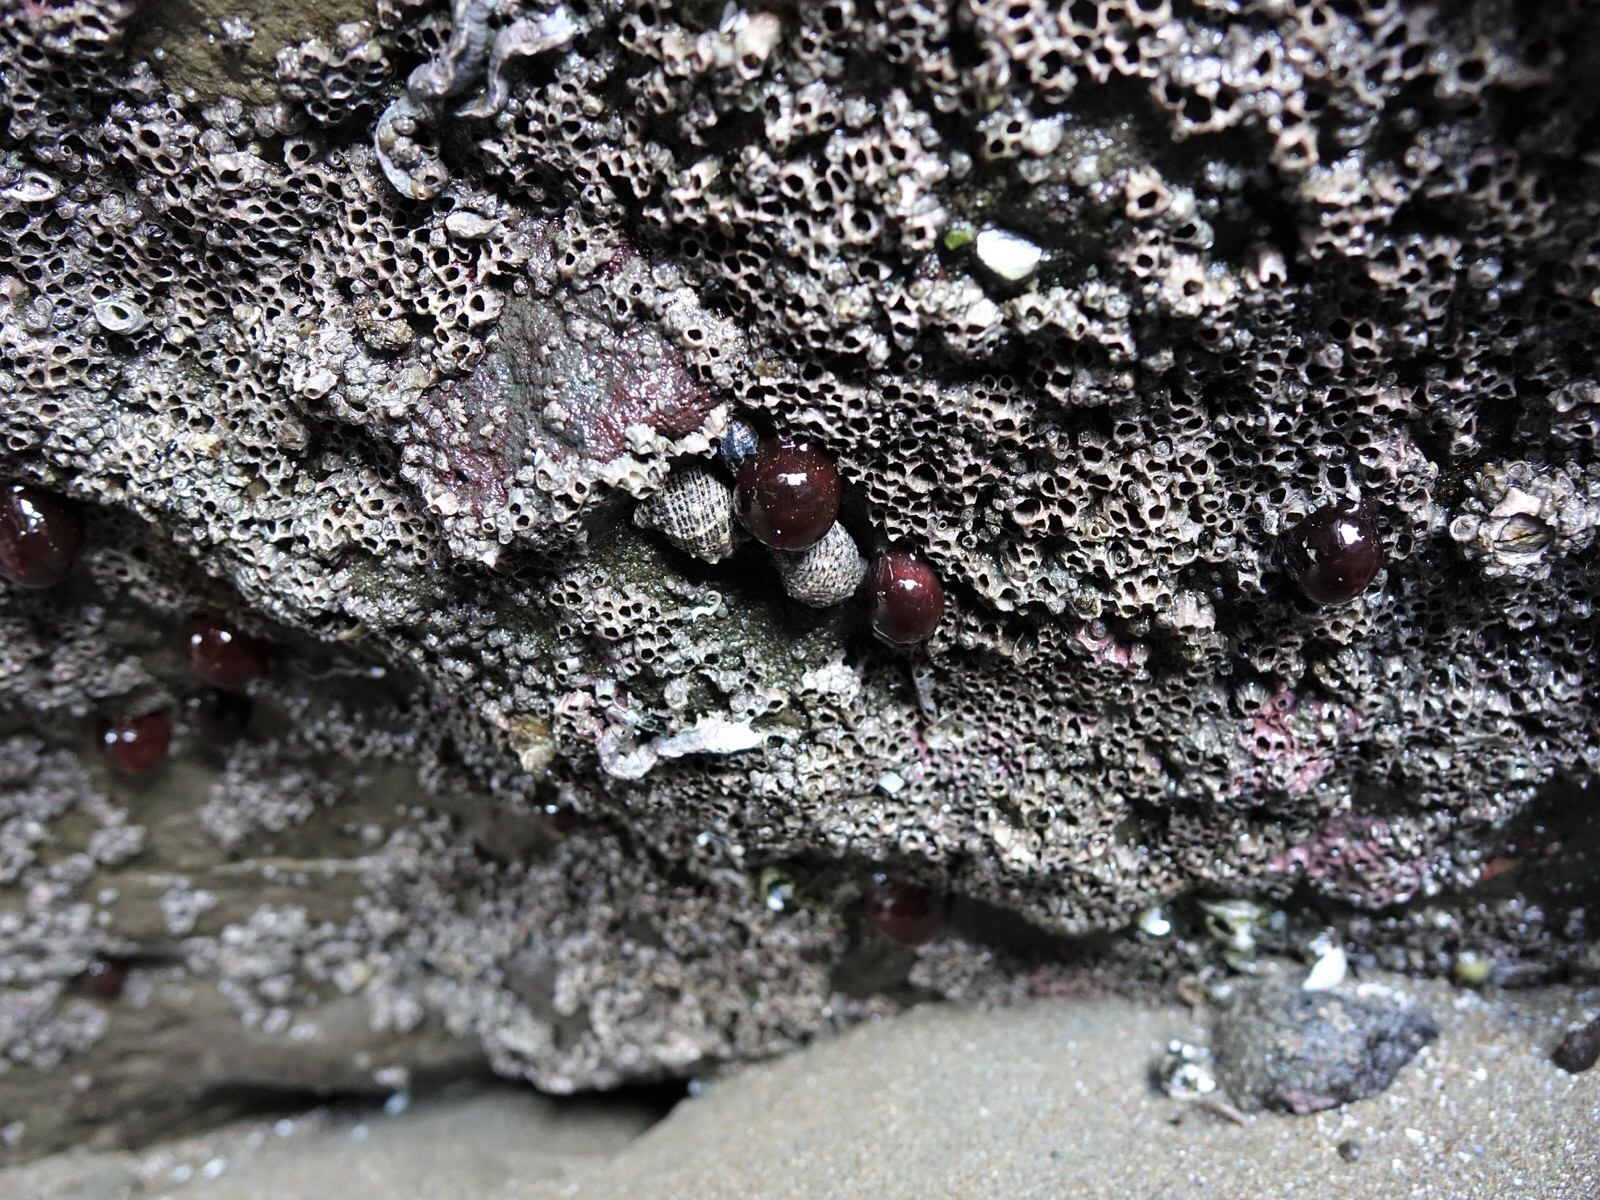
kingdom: Animalia
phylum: Cnidaria
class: Anthozoa
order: Actiniaria
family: Actiniidae
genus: Actinia
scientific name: Actinia tenebrosa
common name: Waratah anemone
